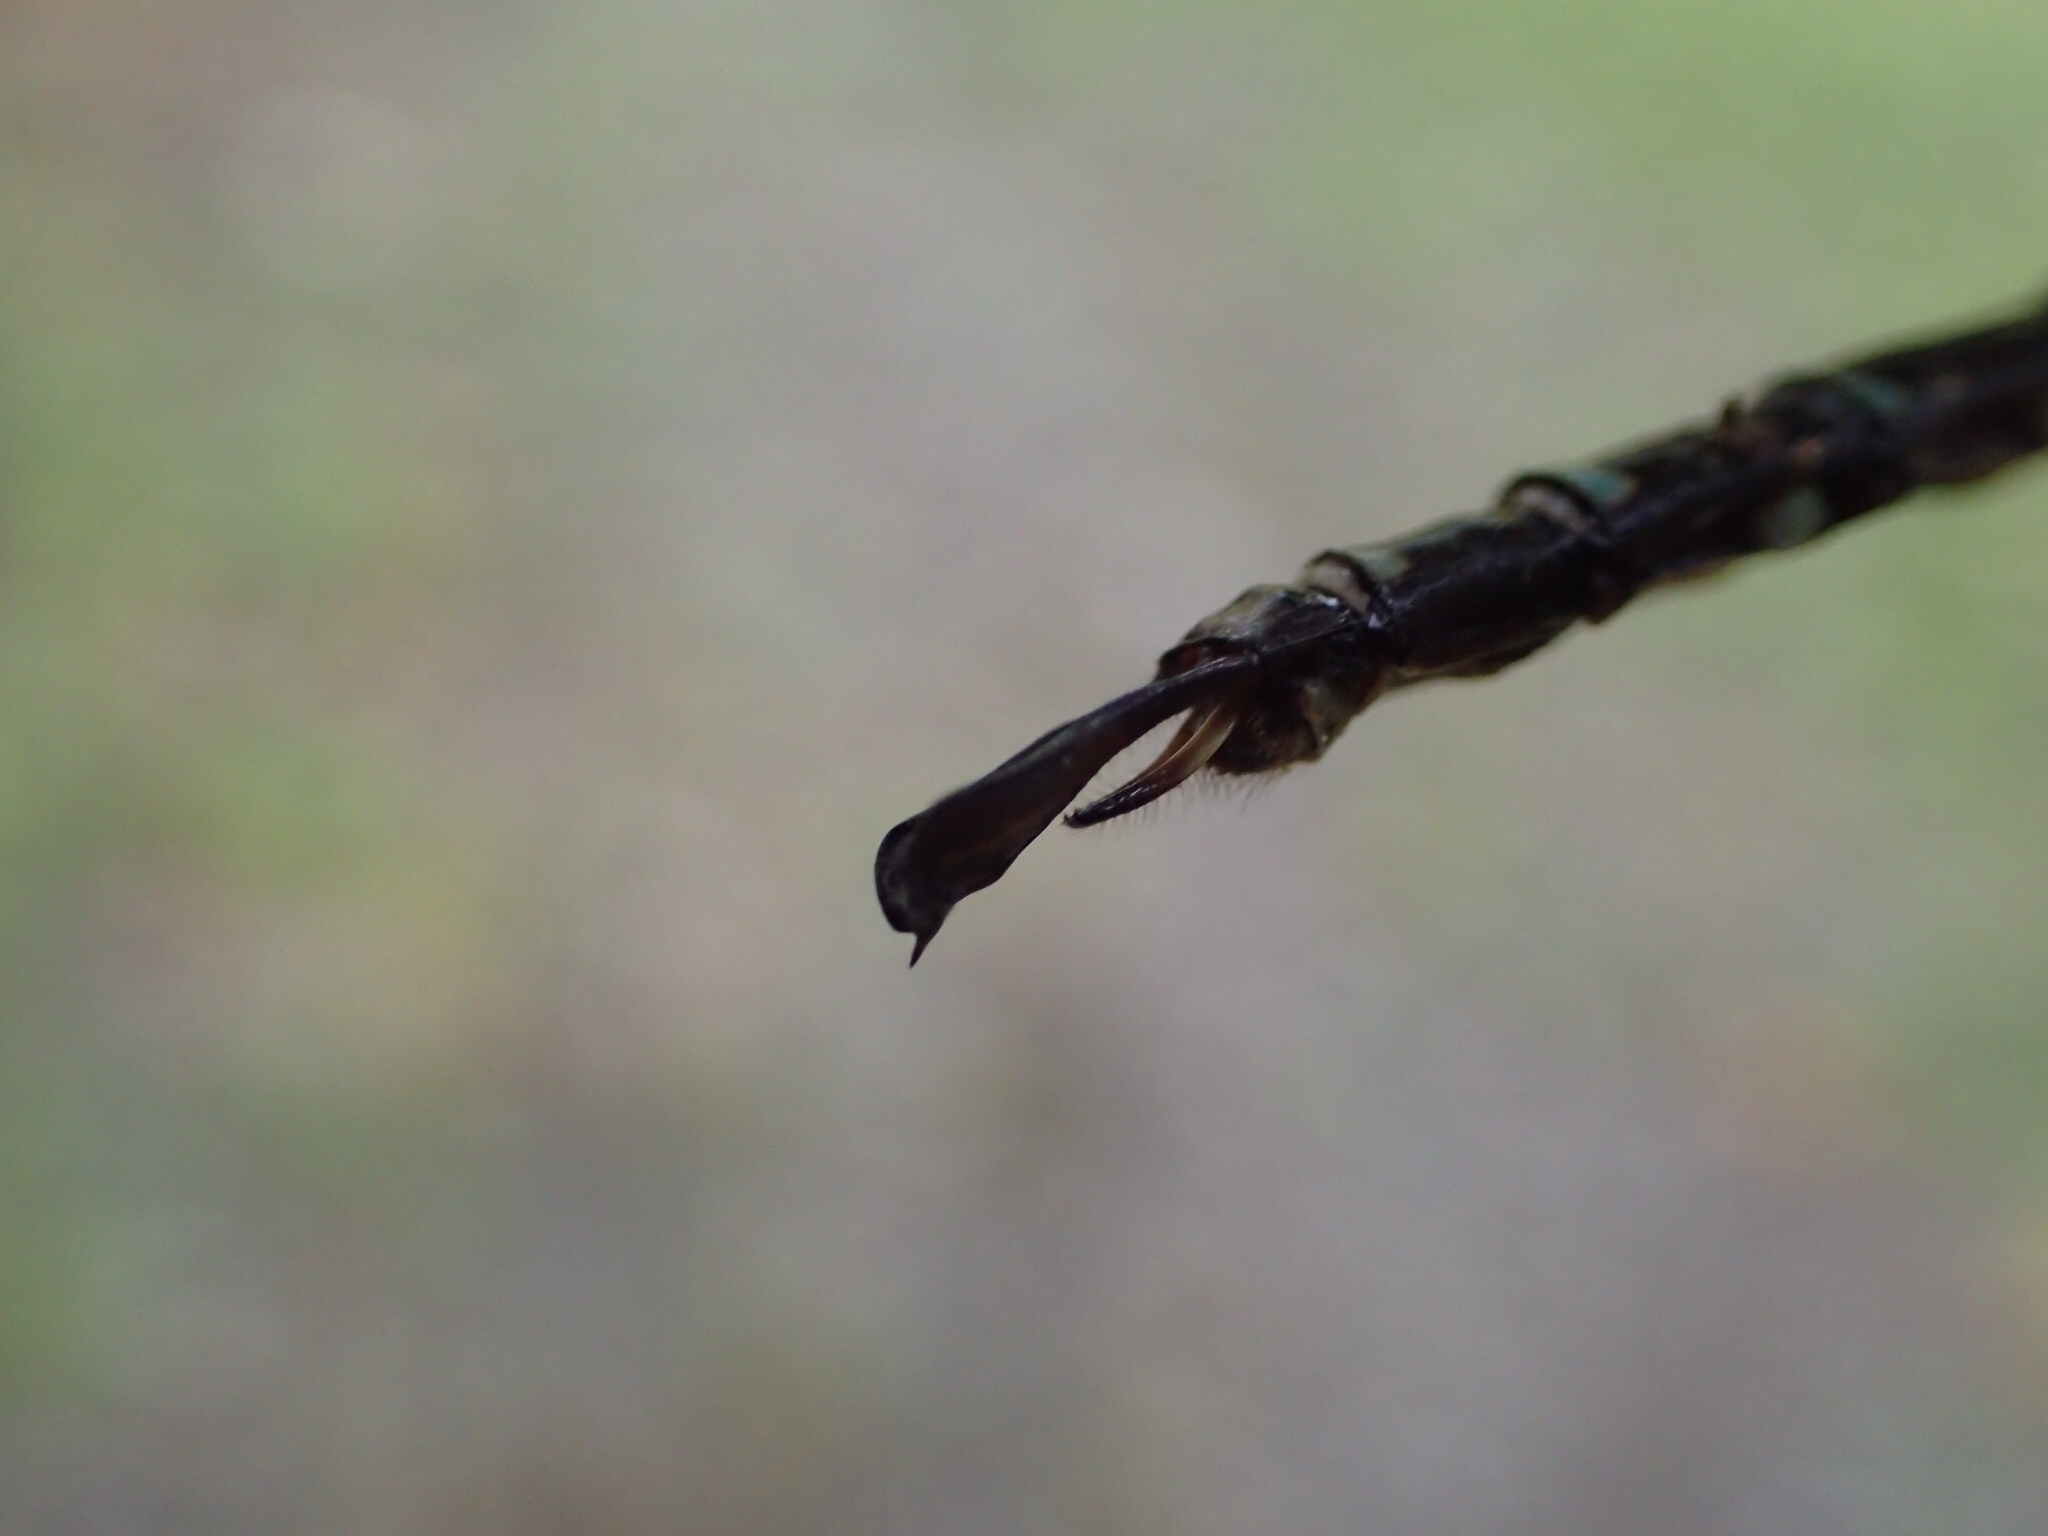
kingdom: Animalia
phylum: Arthropoda
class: Insecta
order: Odonata
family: Aeshnidae
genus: Aeshna
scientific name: Aeshna umbrosa
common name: Shadow darner
